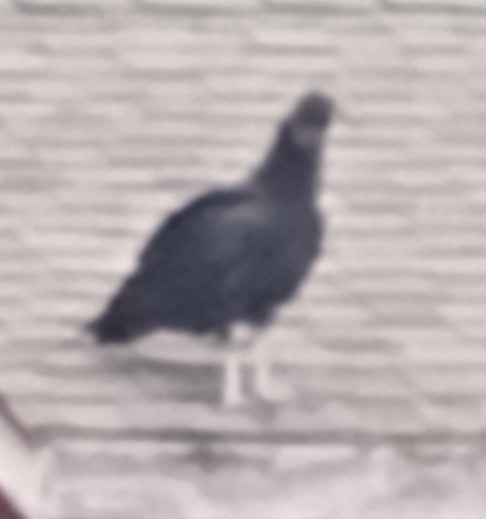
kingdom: Animalia
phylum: Chordata
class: Aves
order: Accipitriformes
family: Cathartidae
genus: Coragyps
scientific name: Coragyps atratus
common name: Black vulture
